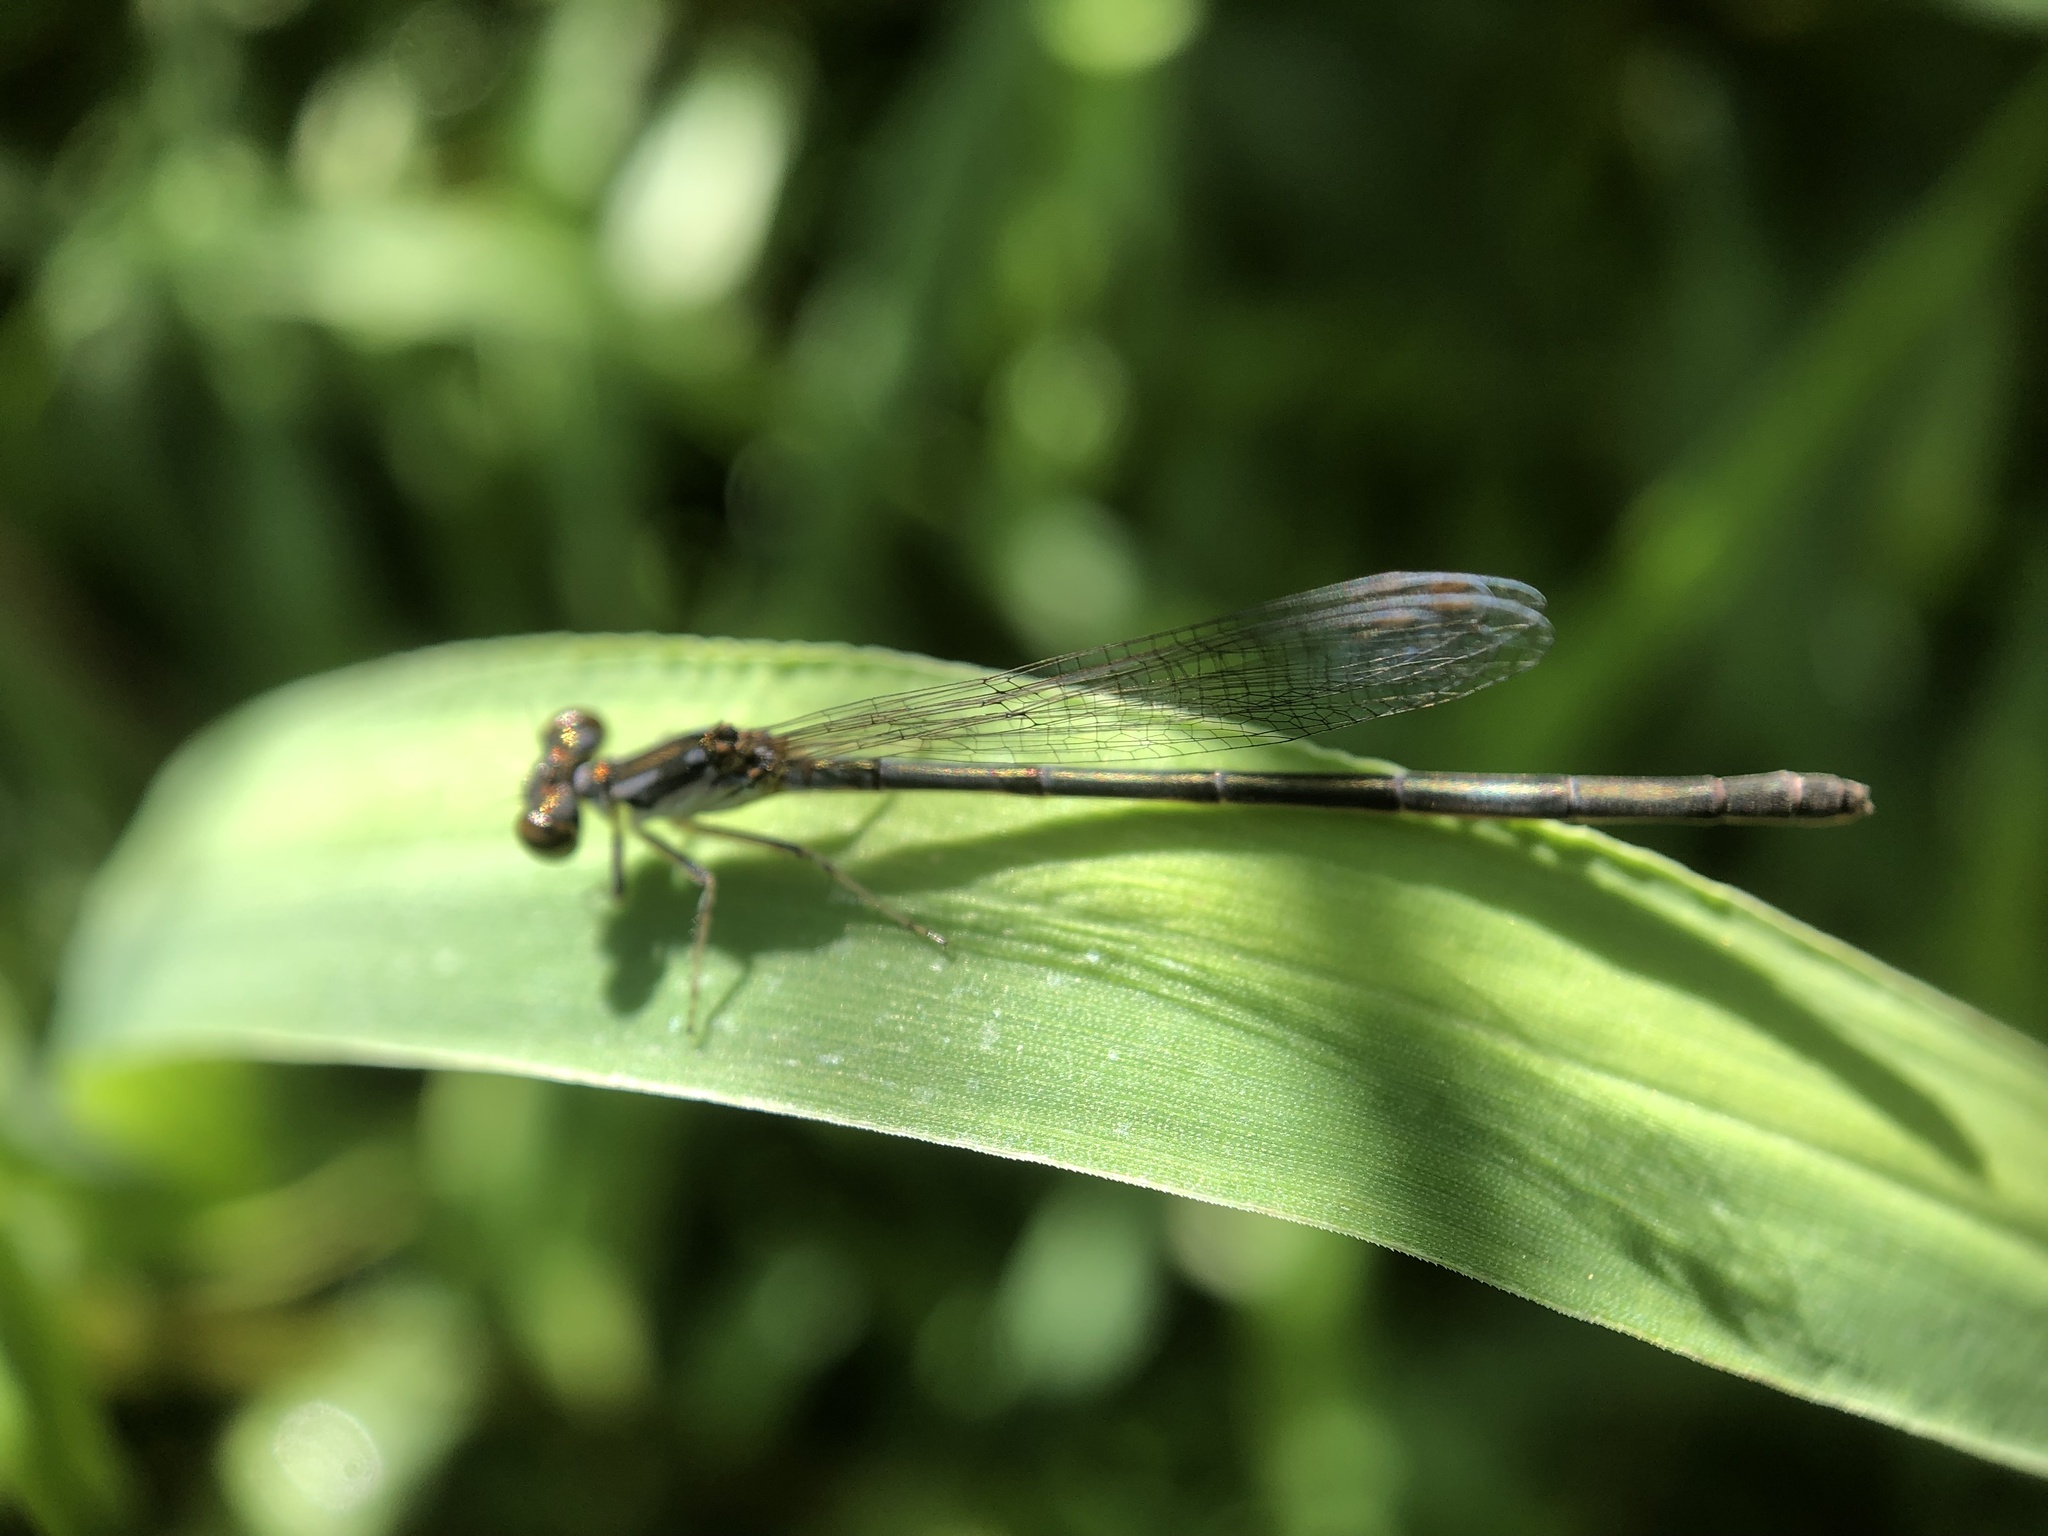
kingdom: Animalia
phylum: Arthropoda
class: Insecta
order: Odonata
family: Coenagrionidae
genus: Ischnura
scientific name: Ischnura posita
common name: Fragile forktail
